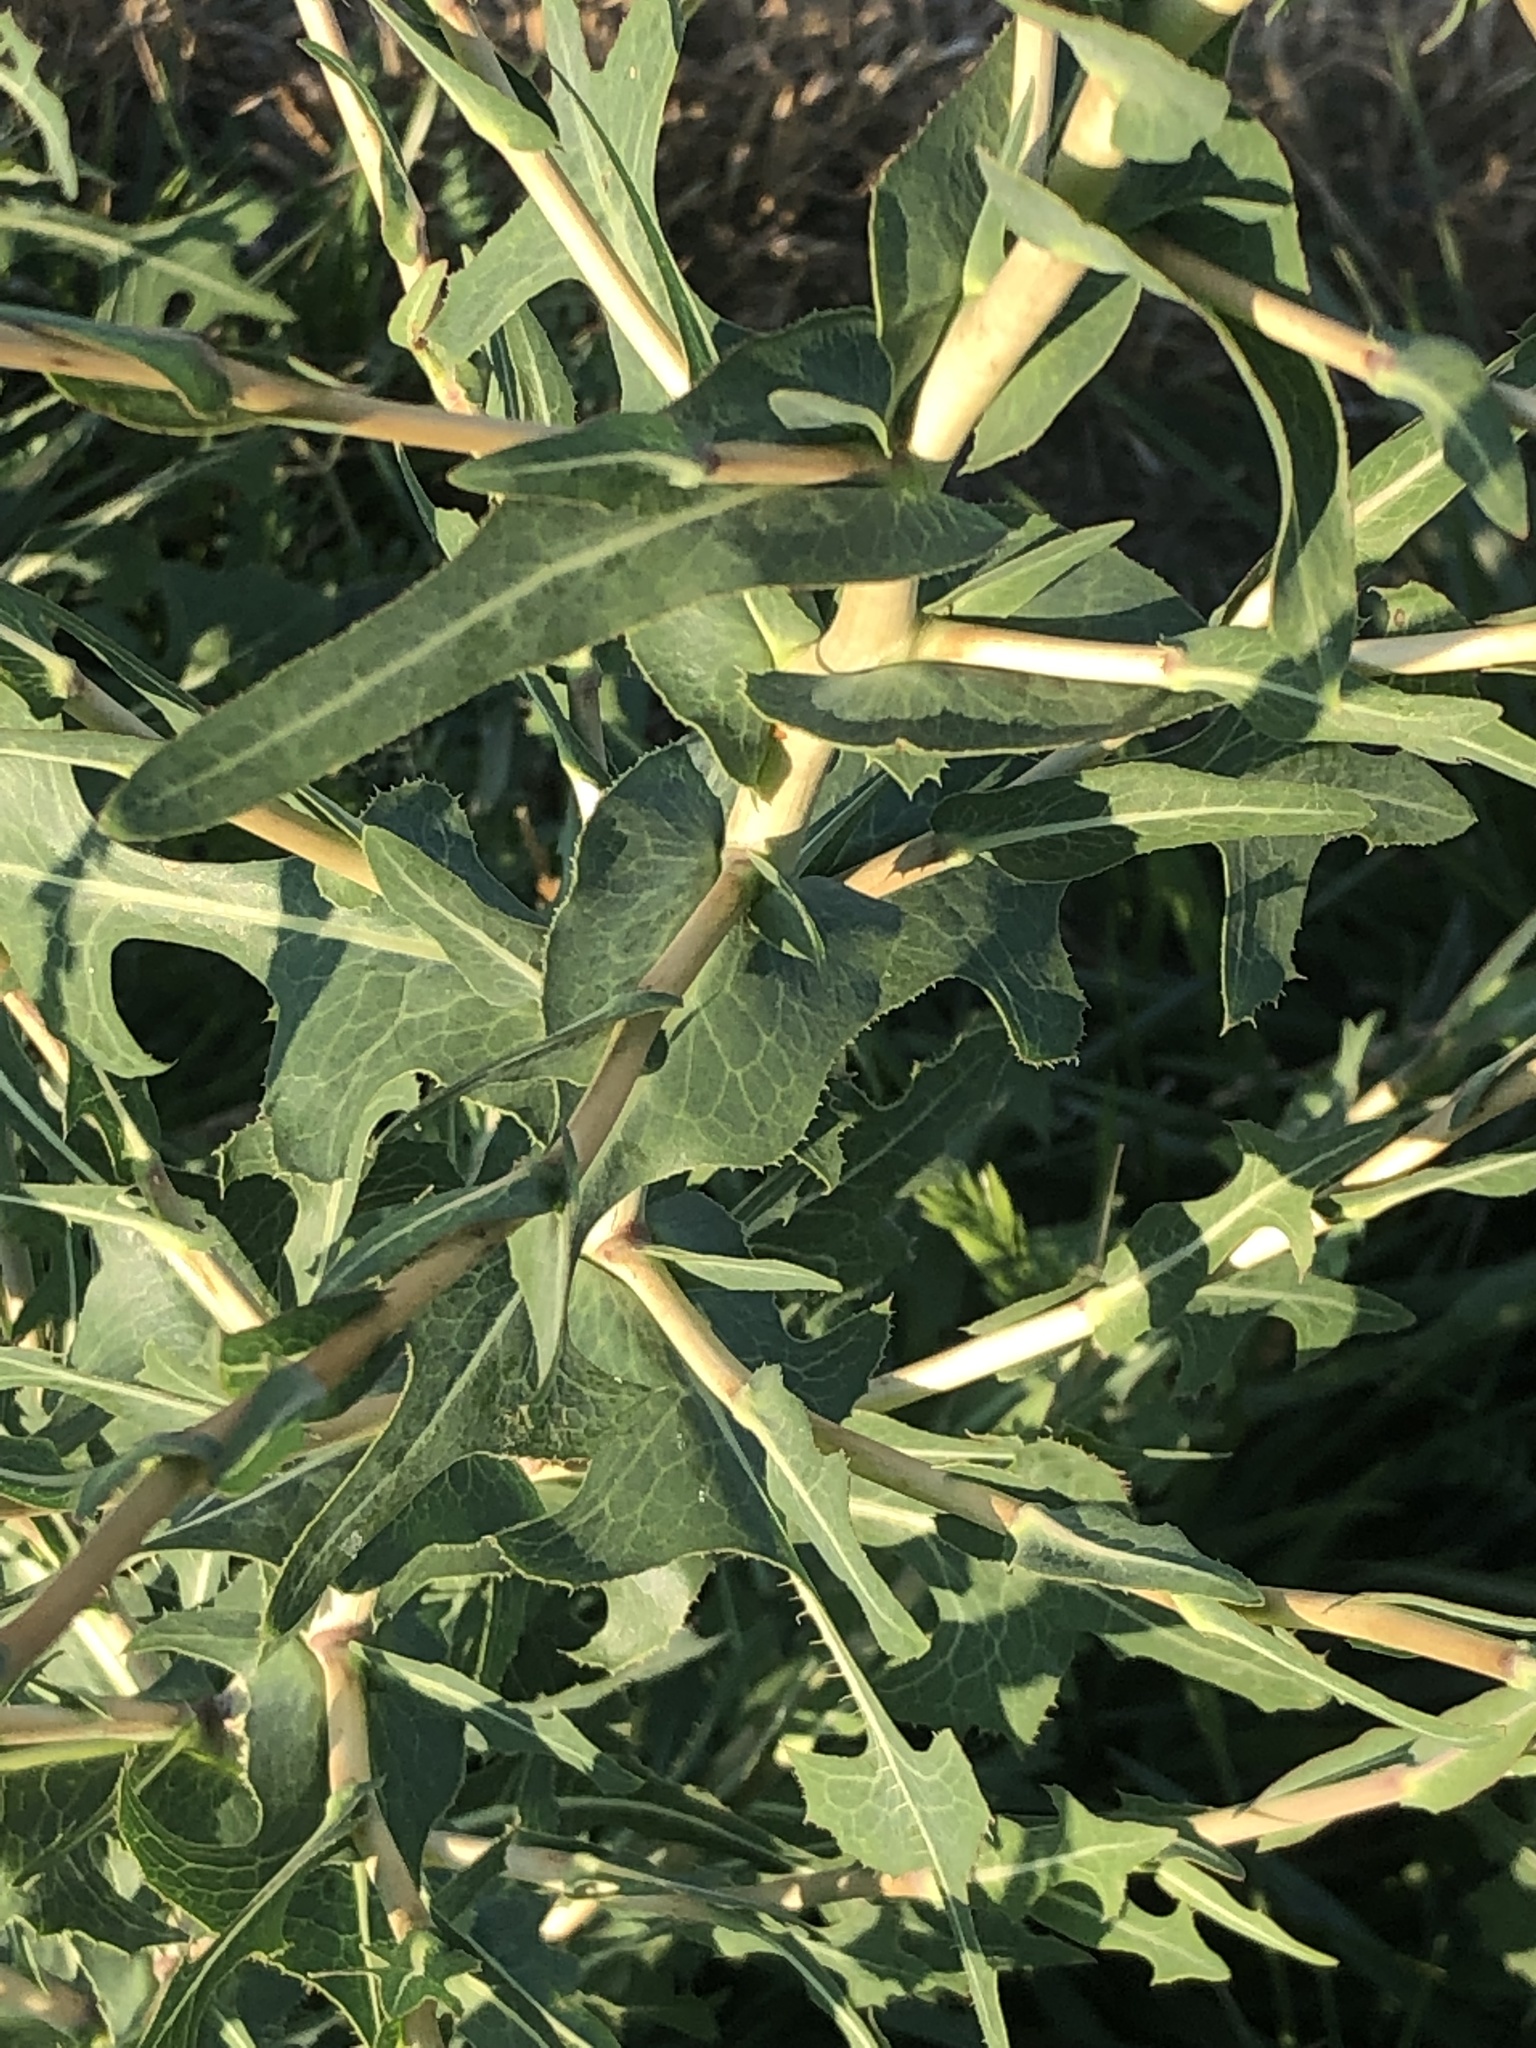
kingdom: Plantae
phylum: Tracheophyta
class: Magnoliopsida
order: Asterales
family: Asteraceae
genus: Lactuca
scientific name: Lactuca serriola
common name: Prickly lettuce
